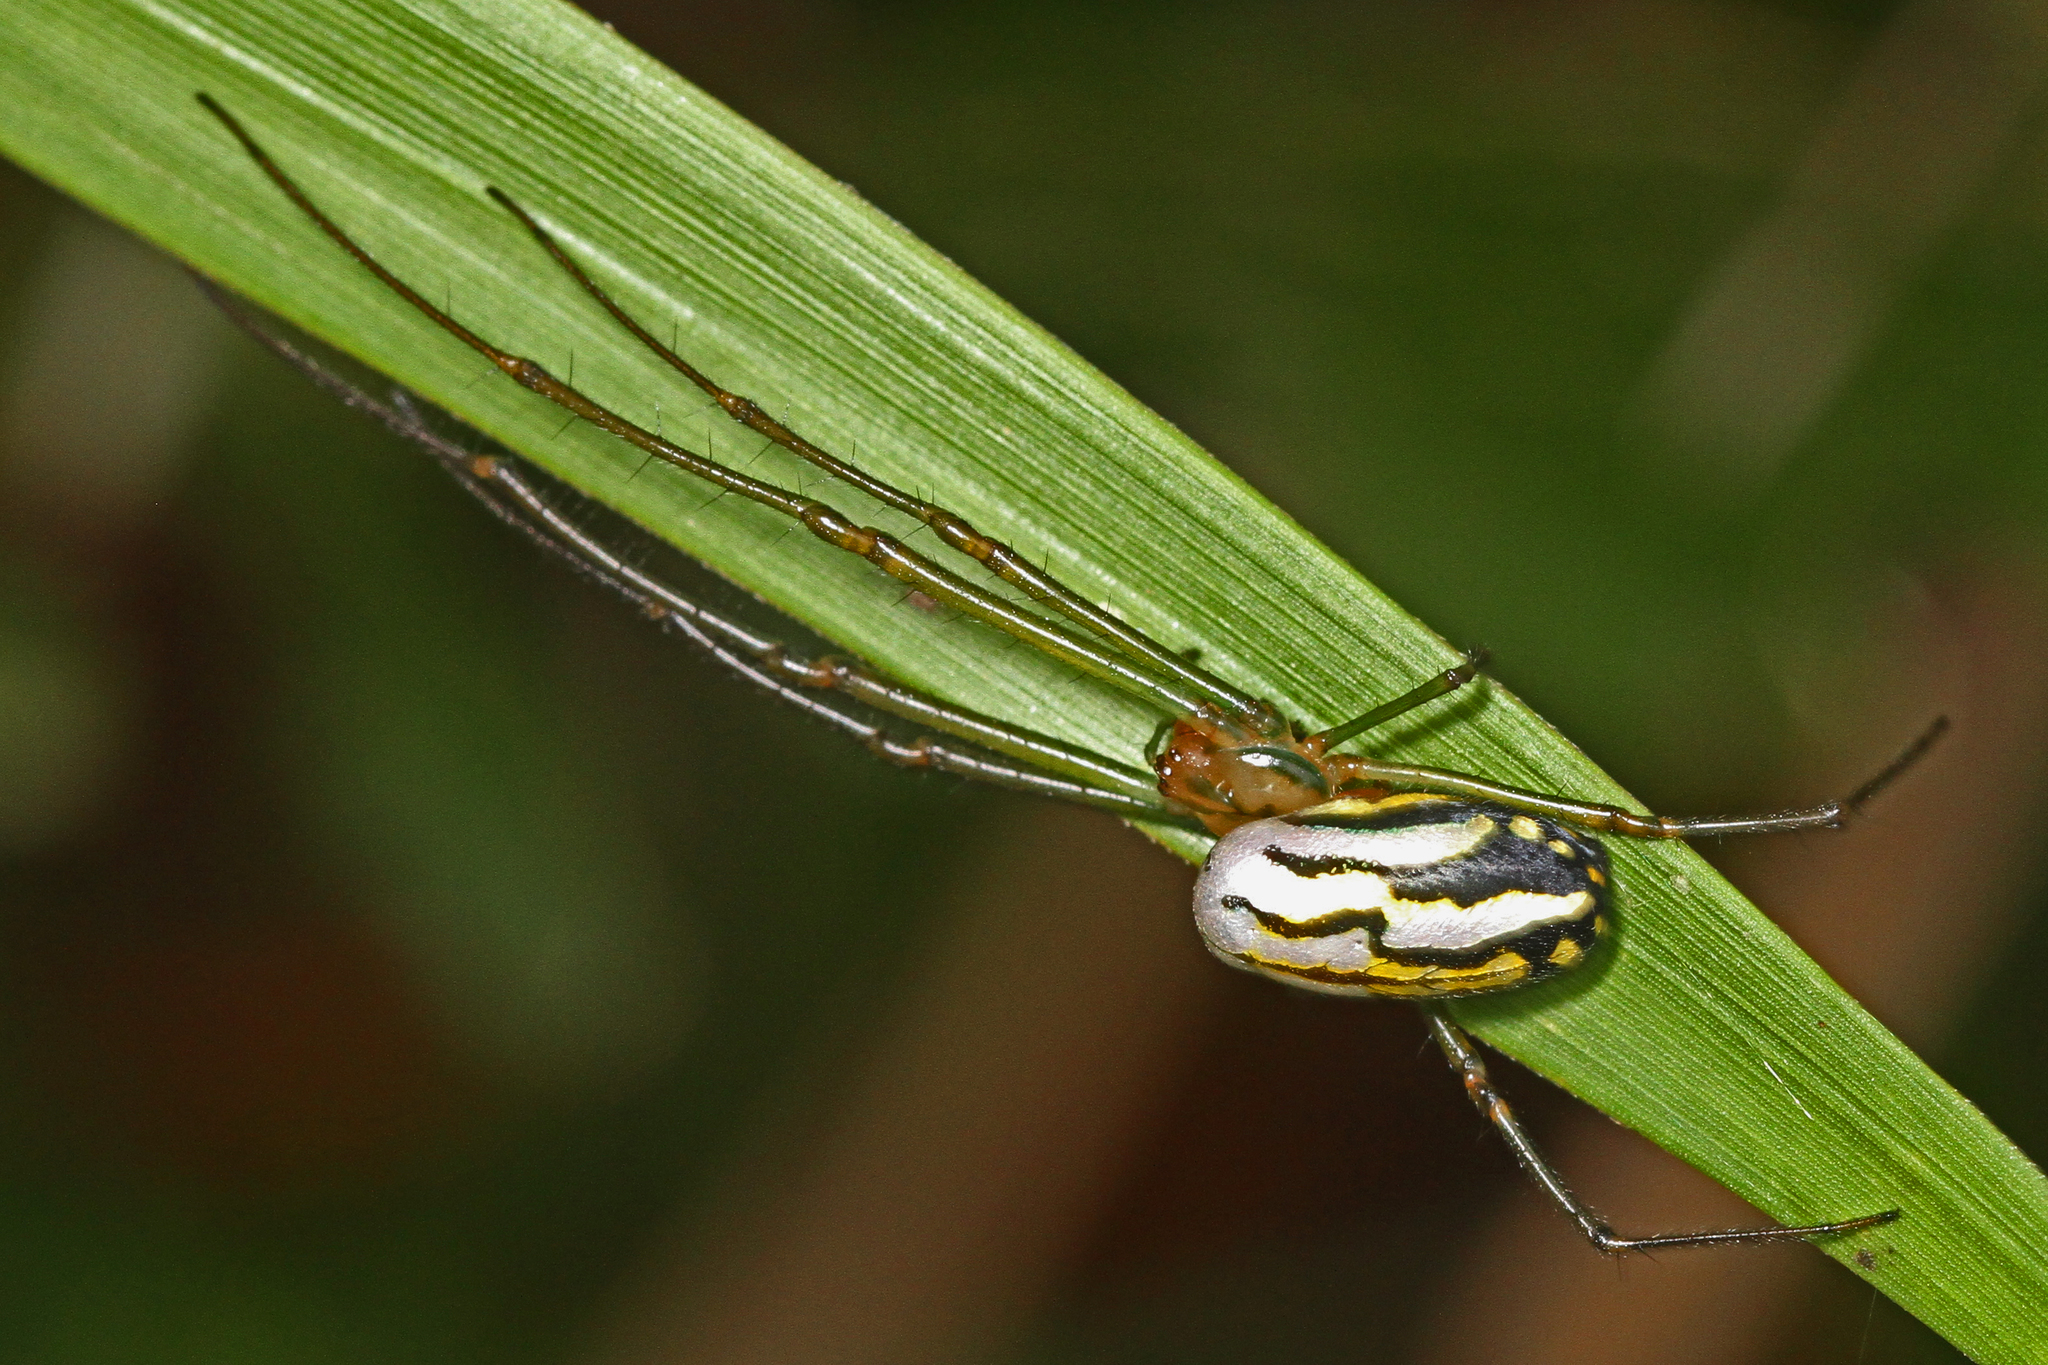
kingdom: Animalia
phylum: Arthropoda
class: Arachnida
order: Araneae
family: Tetragnathidae
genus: Leucauge
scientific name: Leucauge argyra
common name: Longjawed orb weavers
